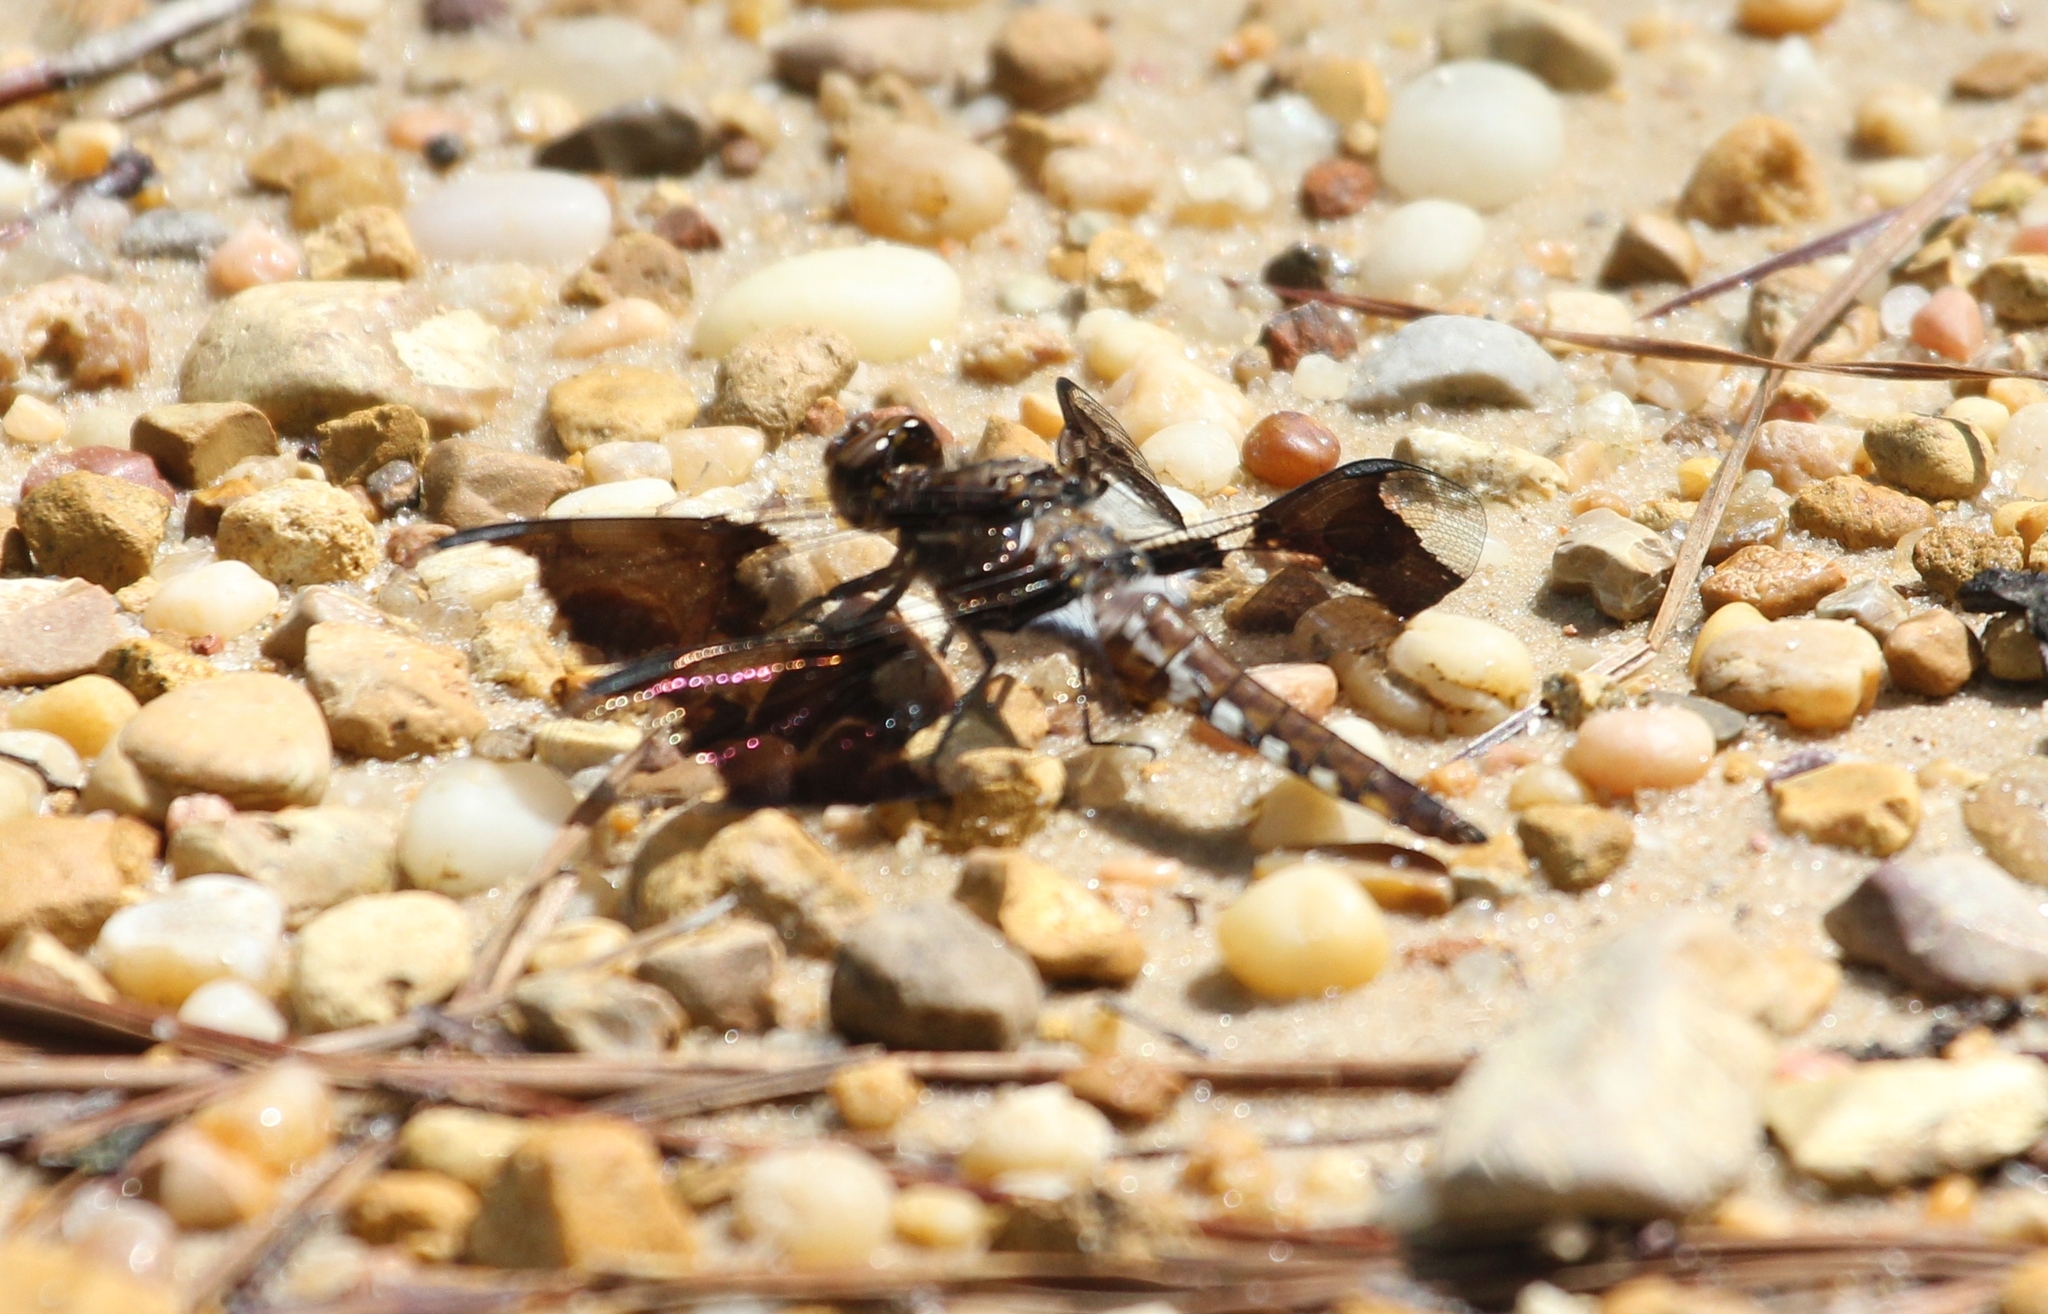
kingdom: Animalia
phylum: Arthropoda
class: Insecta
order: Odonata
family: Libellulidae
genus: Plathemis
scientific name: Plathemis lydia
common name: Common whitetail
